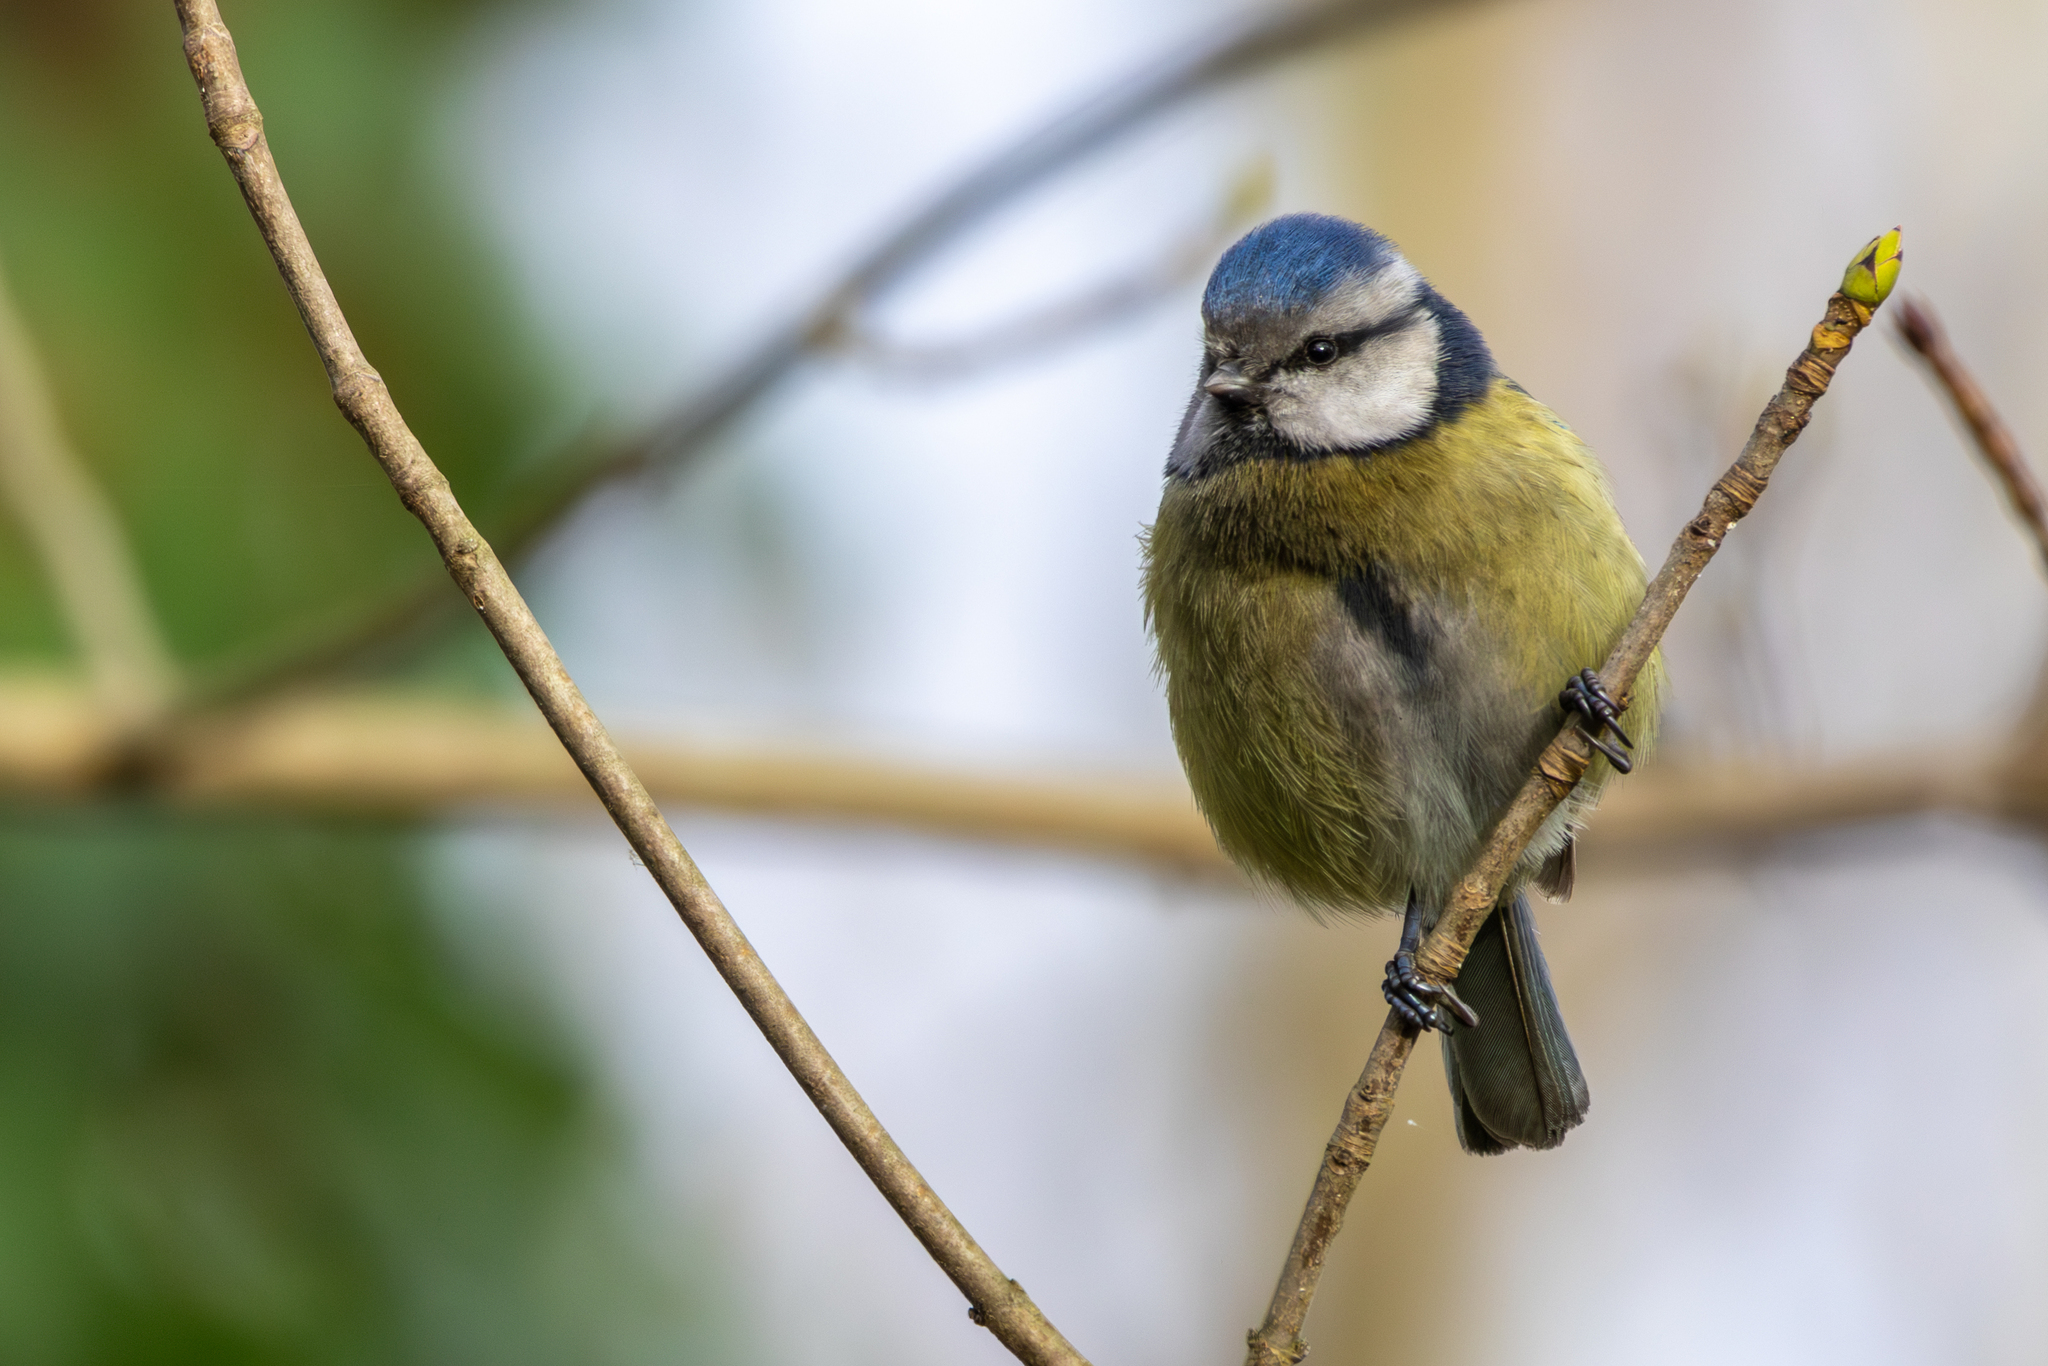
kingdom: Animalia
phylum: Chordata
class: Aves
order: Passeriformes
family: Paridae
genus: Cyanistes
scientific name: Cyanistes caeruleus
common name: Eurasian blue tit
